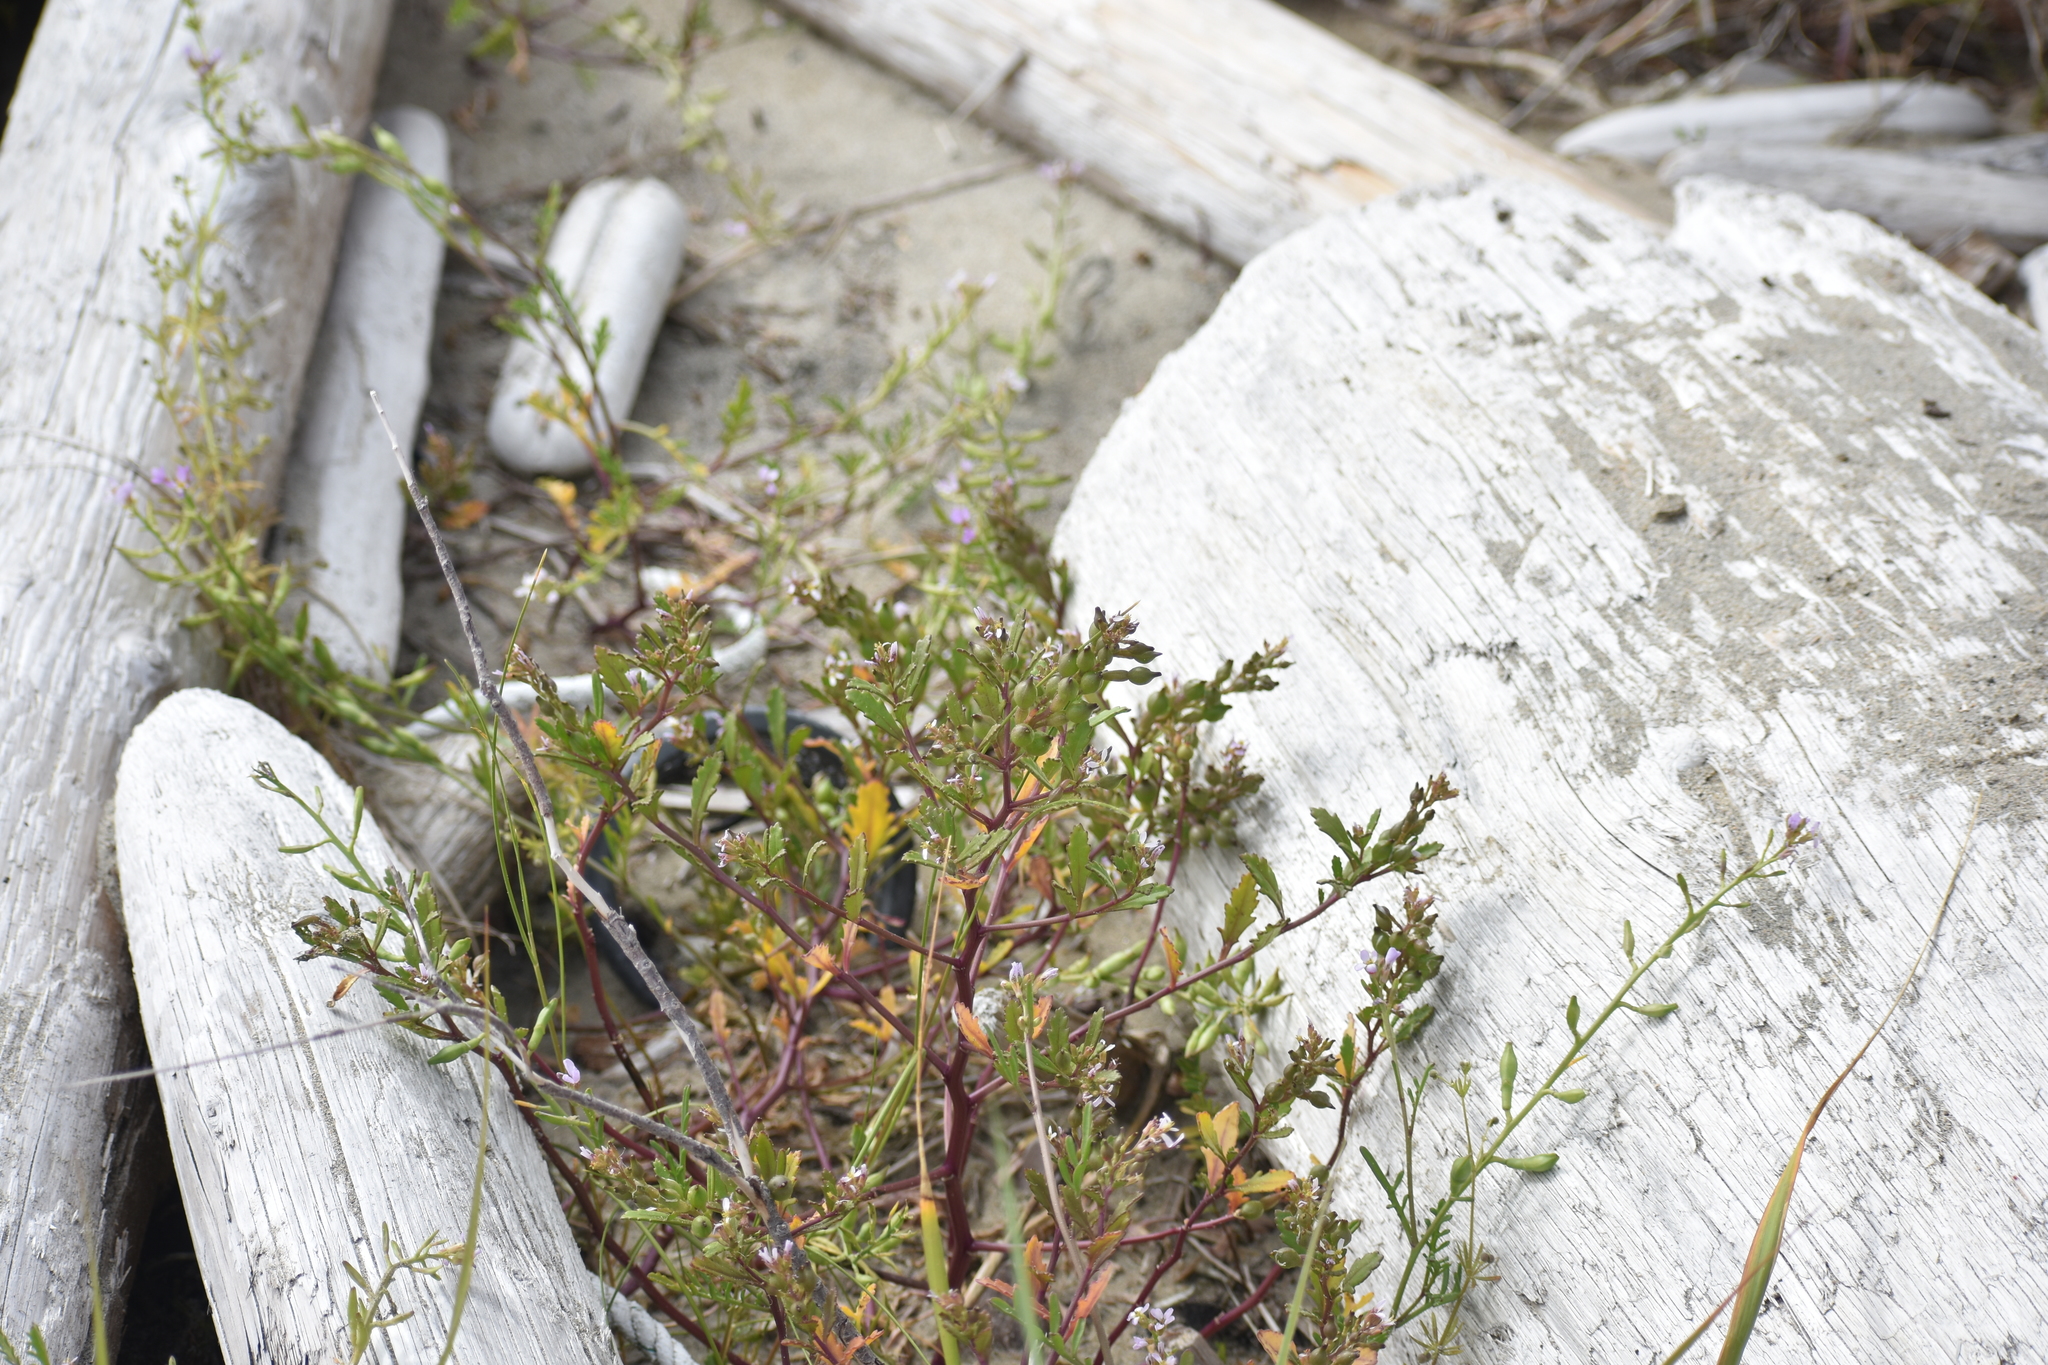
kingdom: Plantae
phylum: Tracheophyta
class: Magnoliopsida
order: Brassicales
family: Brassicaceae
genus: Cakile
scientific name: Cakile edentula
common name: American sea rocket
